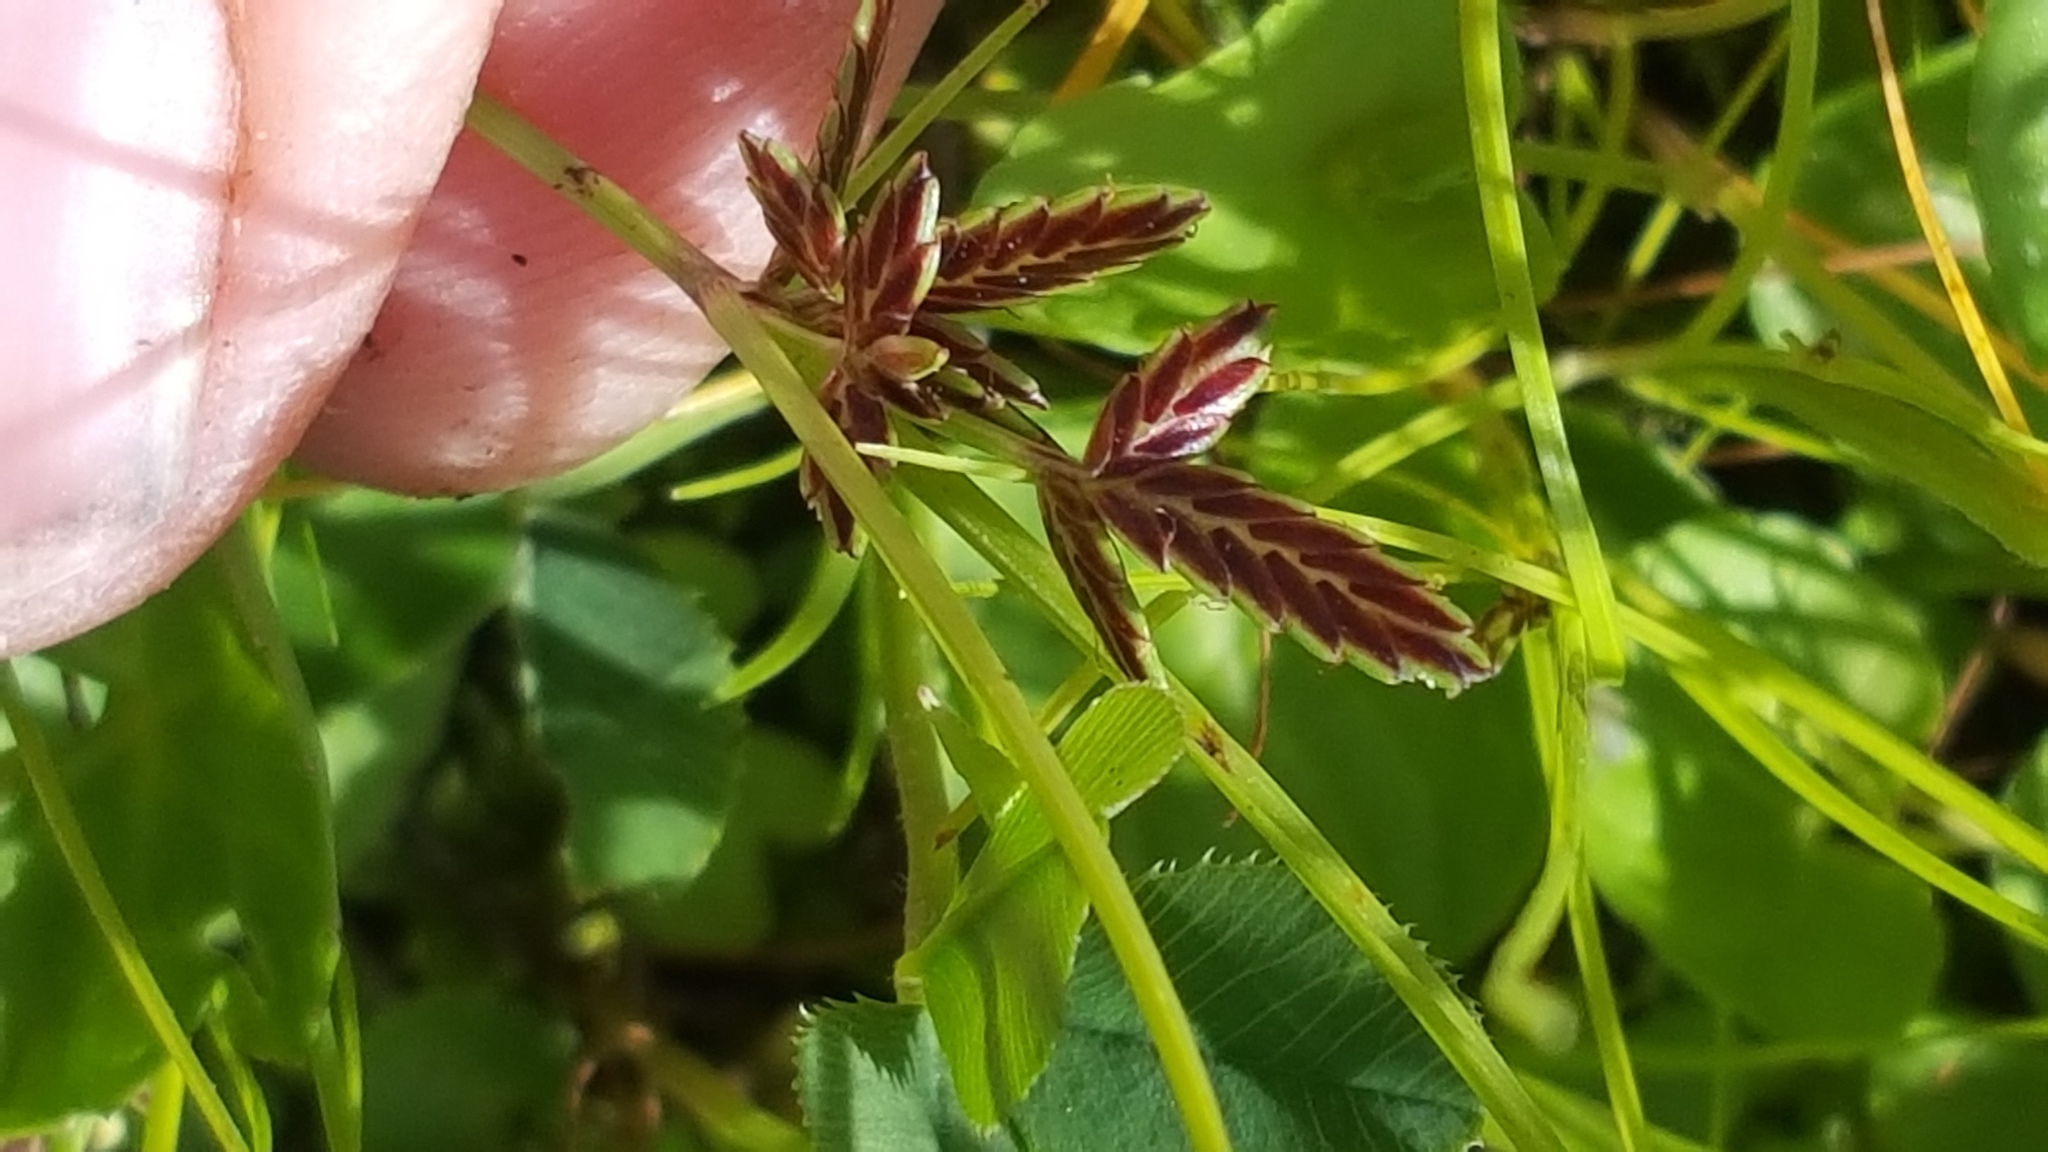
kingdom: Plantae
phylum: Tracheophyta
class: Liliopsida
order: Poales
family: Cyperaceae
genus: Cyperus
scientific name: Cyperus bipartitus
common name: Brook flatsedge
